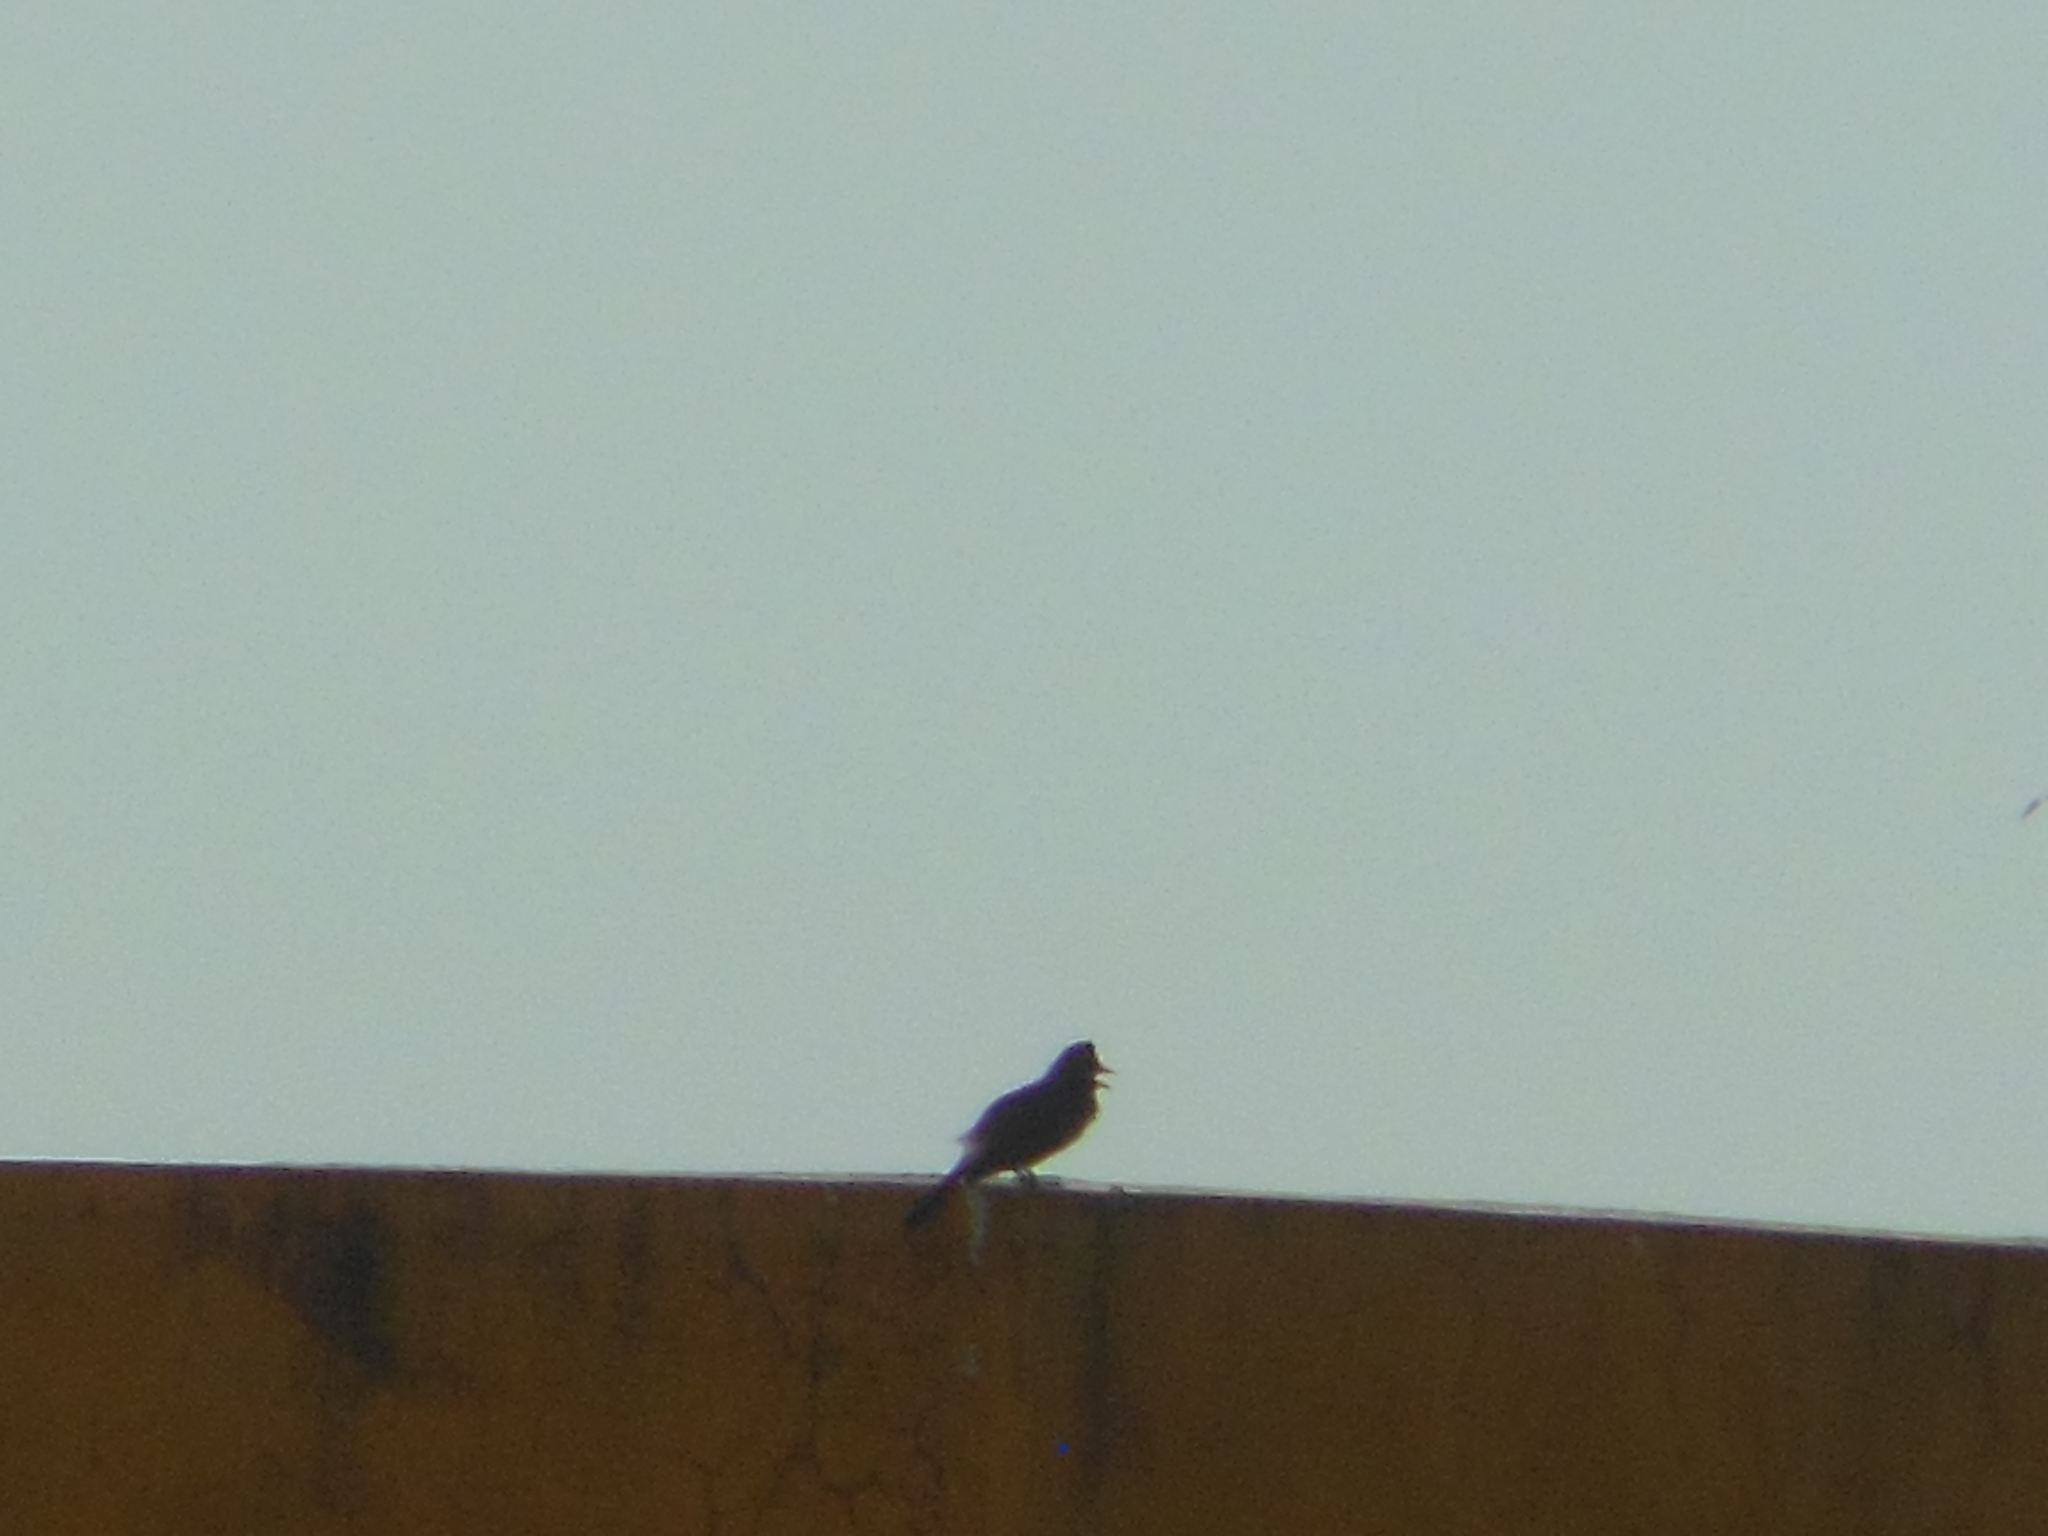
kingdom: Animalia
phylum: Chordata
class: Aves
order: Passeriformes
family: Pycnonotidae
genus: Pycnonotus
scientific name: Pycnonotus cafer
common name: Red-vented bulbul
